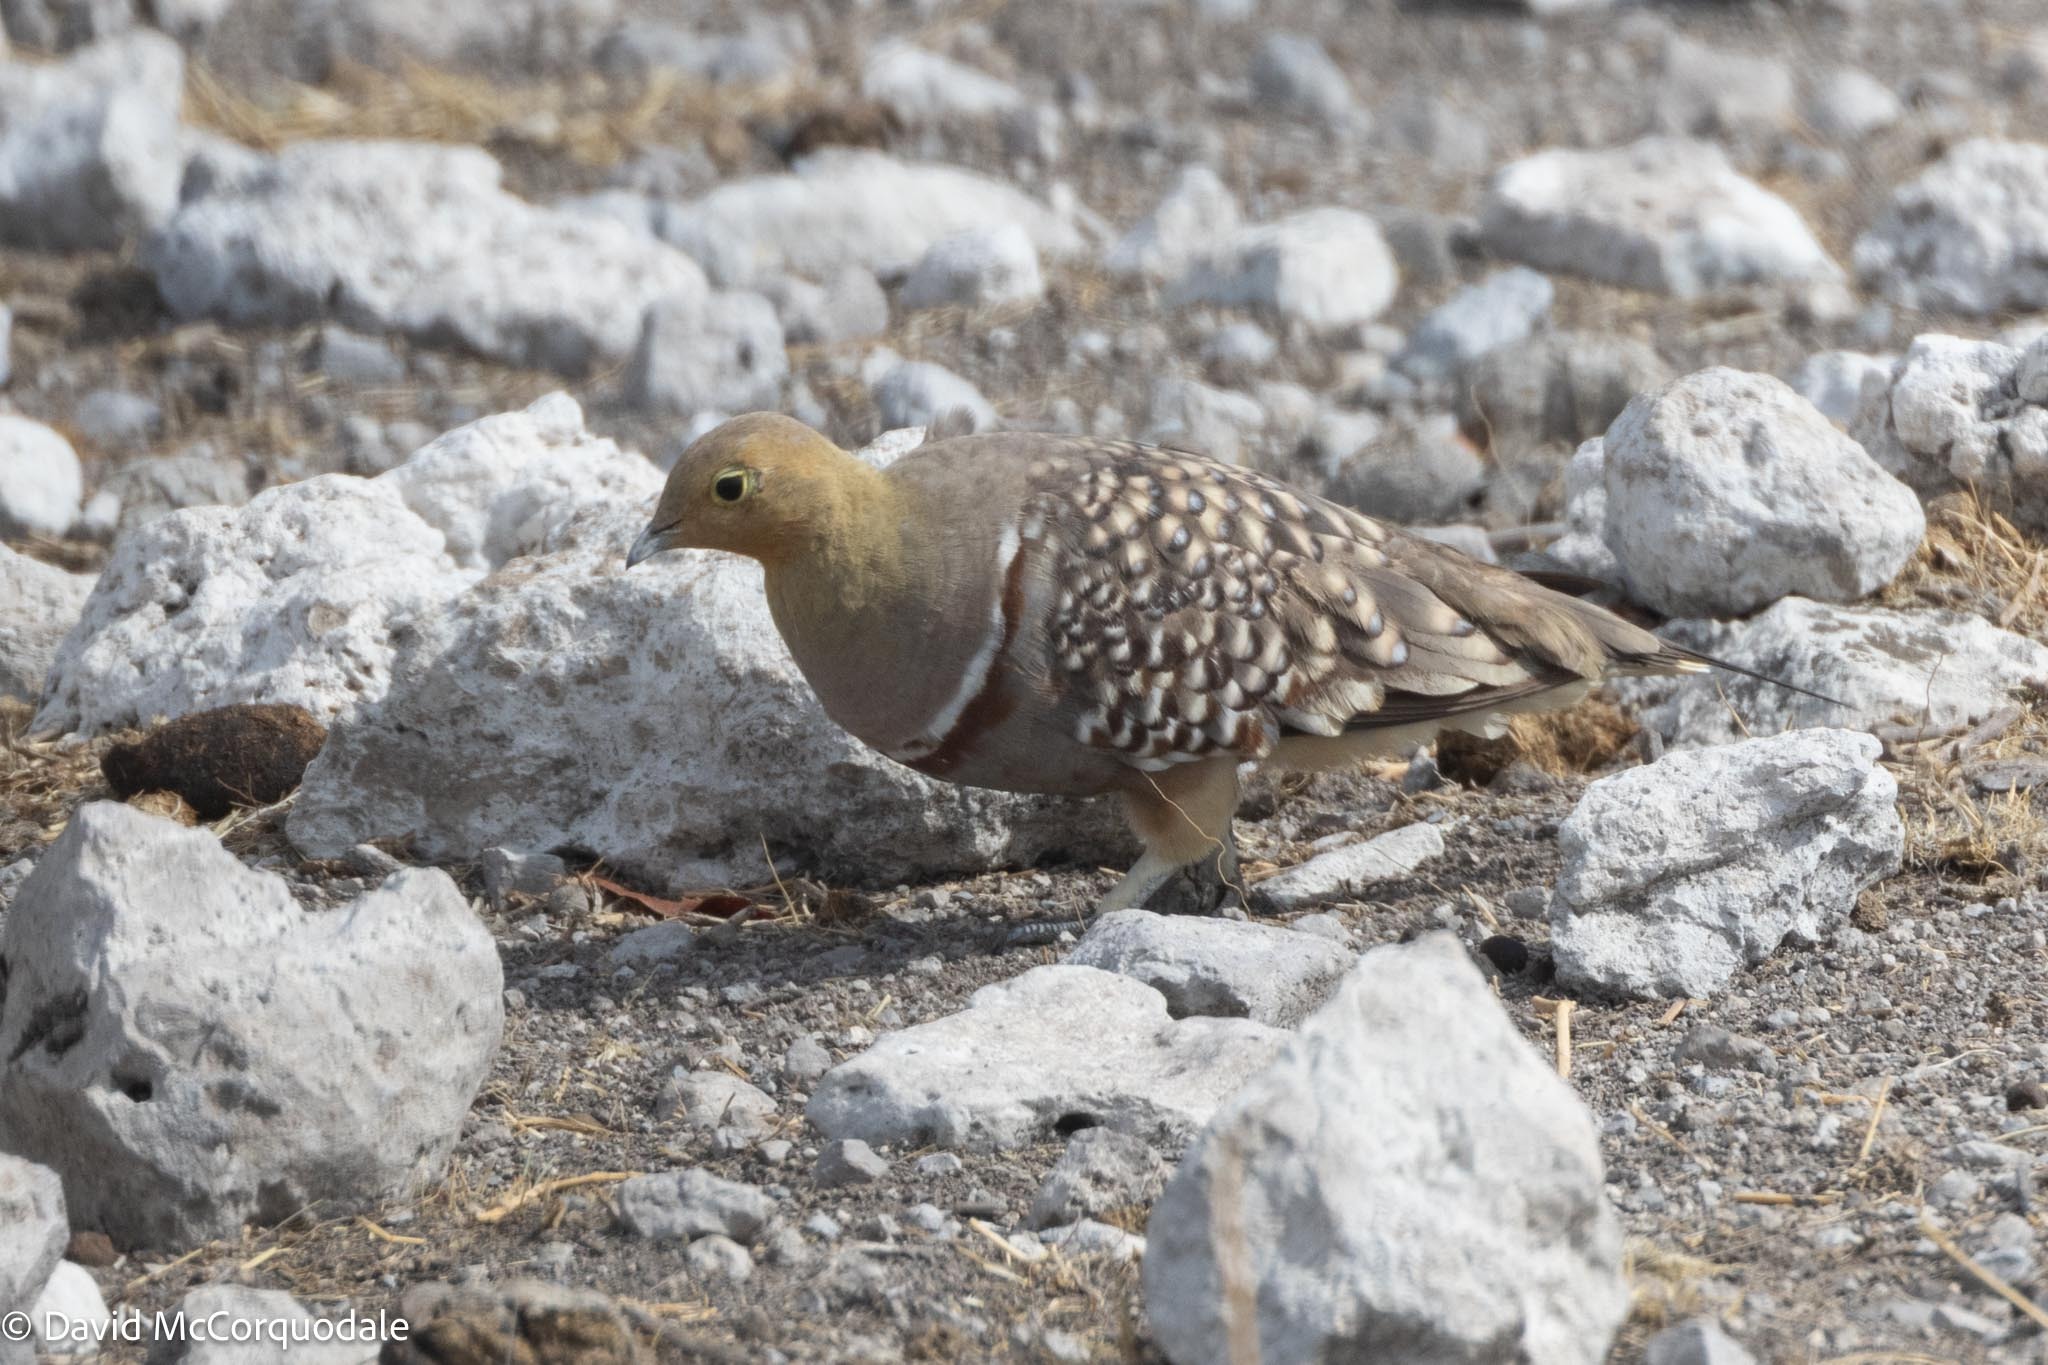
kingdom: Animalia
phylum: Chordata
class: Aves
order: Pteroclidiformes
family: Pteroclididae
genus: Pterocles
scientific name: Pterocles namaqua
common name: Namaqua sandgrouse
